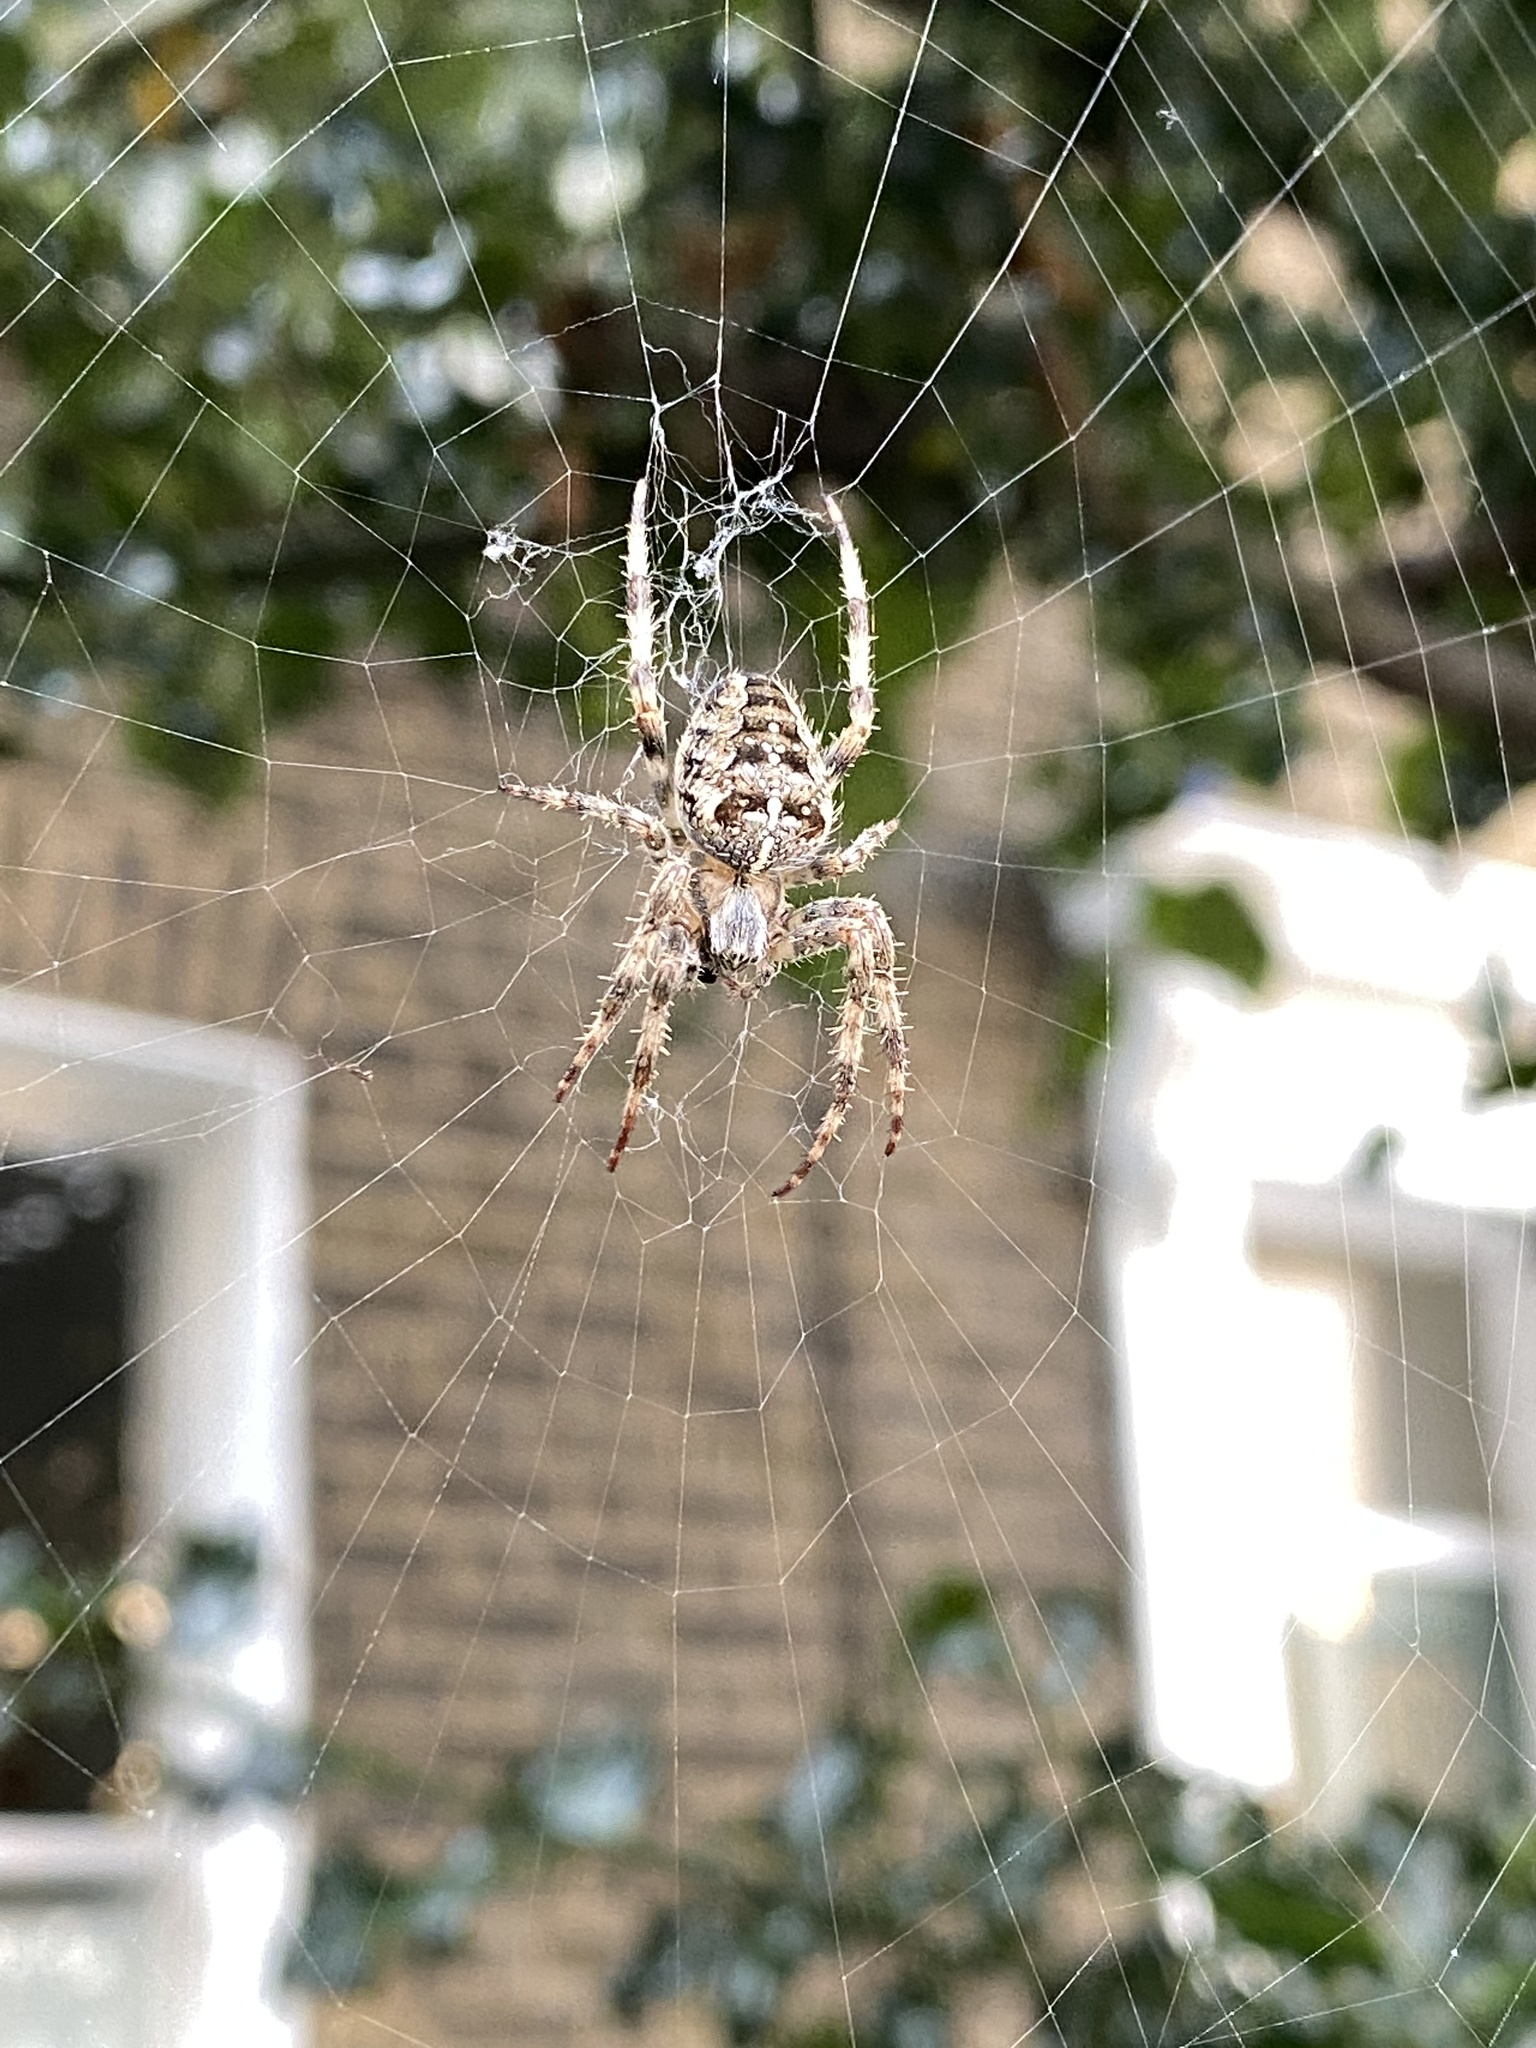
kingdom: Animalia
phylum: Arthropoda
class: Arachnida
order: Araneae
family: Araneidae
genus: Araneus
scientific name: Araneus diadematus
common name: Cross orbweaver
